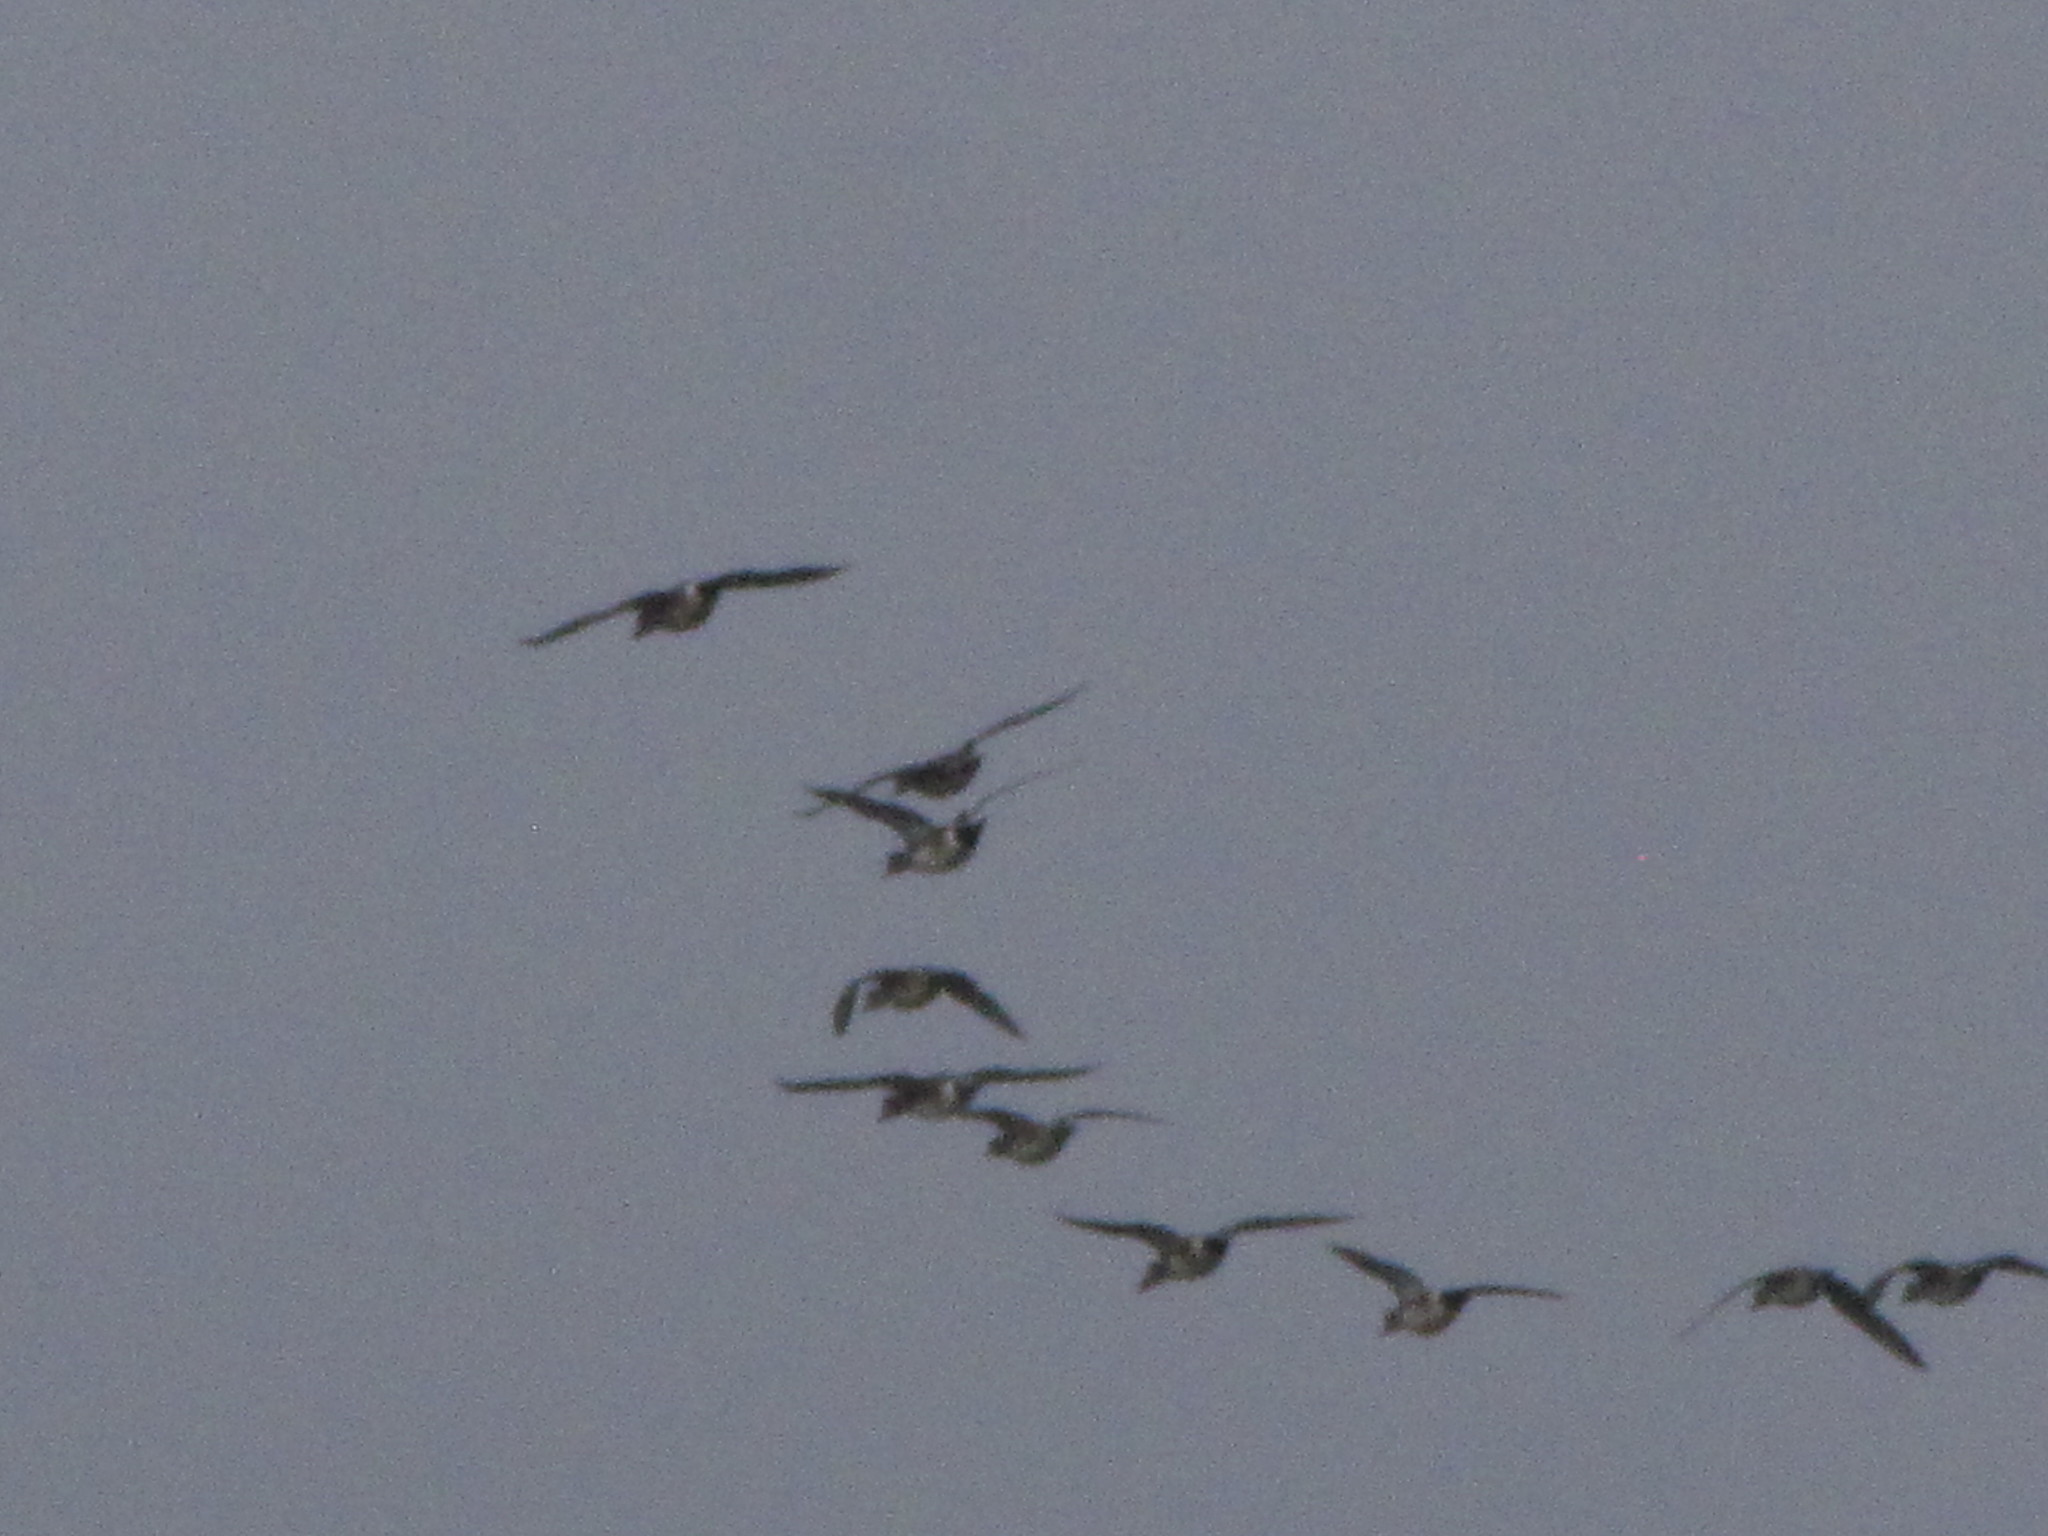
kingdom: Animalia
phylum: Chordata
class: Aves
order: Anseriformes
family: Anatidae
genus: Mareca
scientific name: Mareca americana
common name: American wigeon
